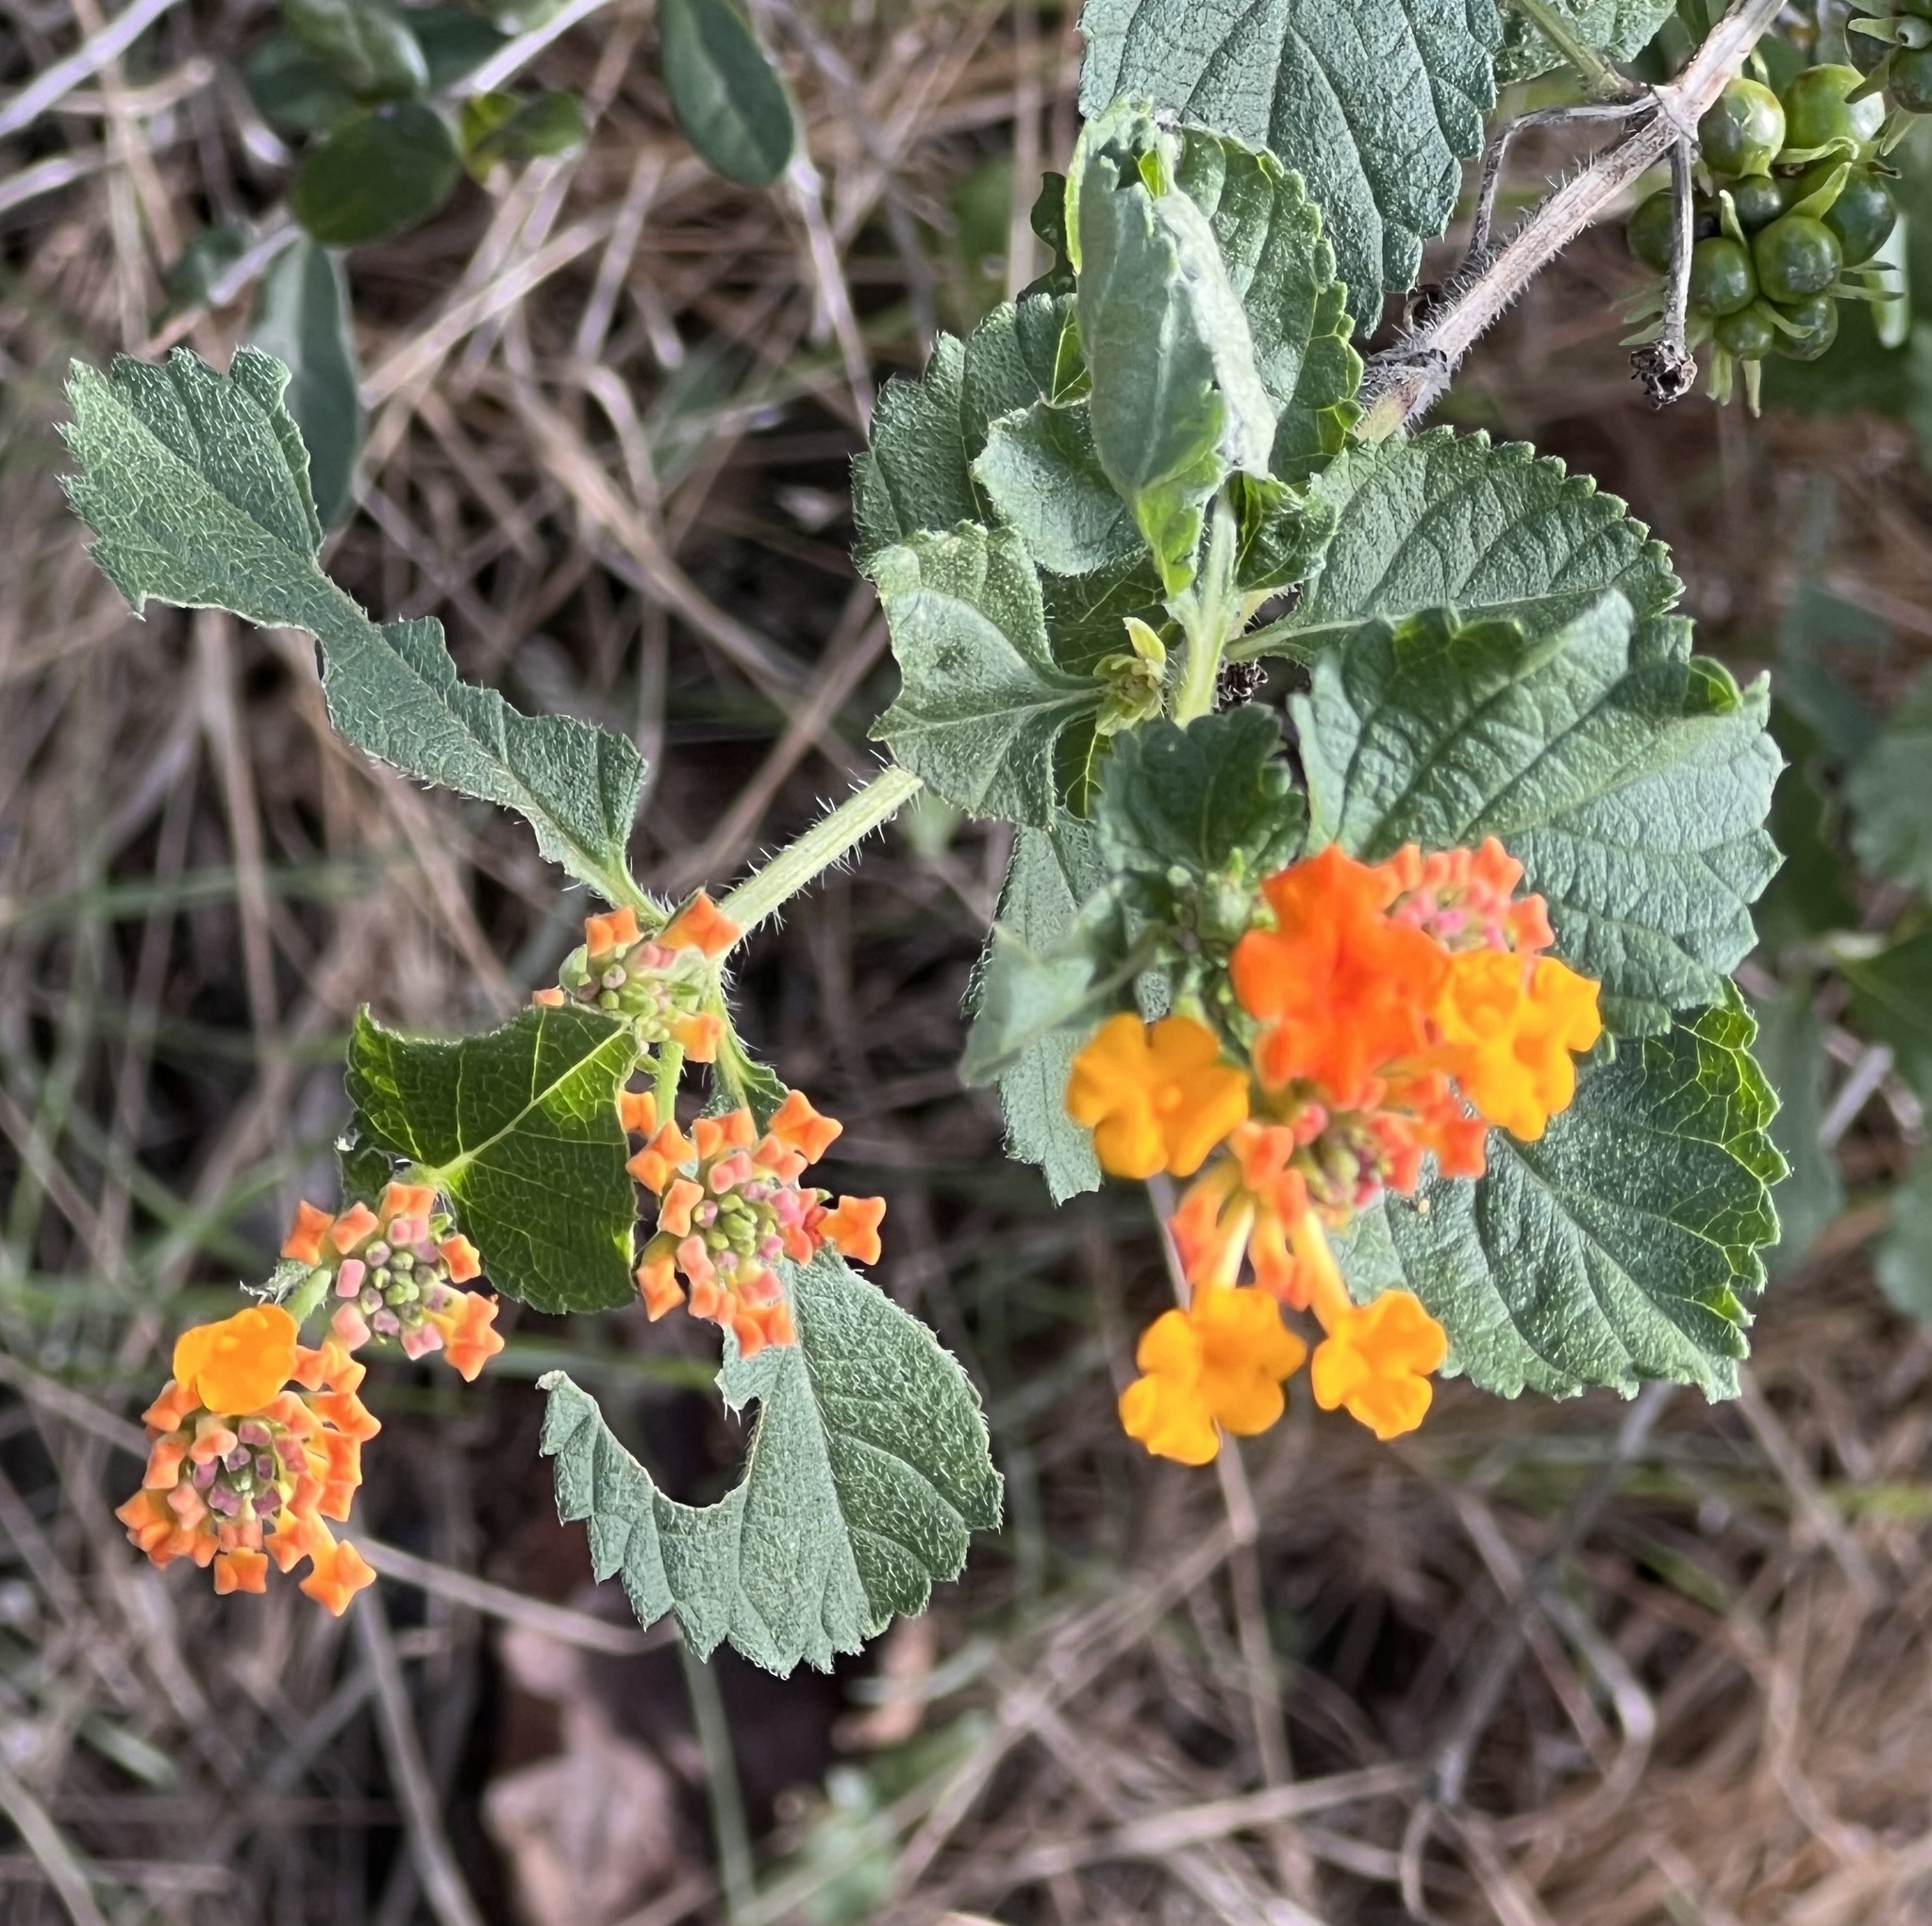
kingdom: Plantae
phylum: Tracheophyta
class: Magnoliopsida
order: Lamiales
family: Verbenaceae
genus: Lantana
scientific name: Lantana urticoides
